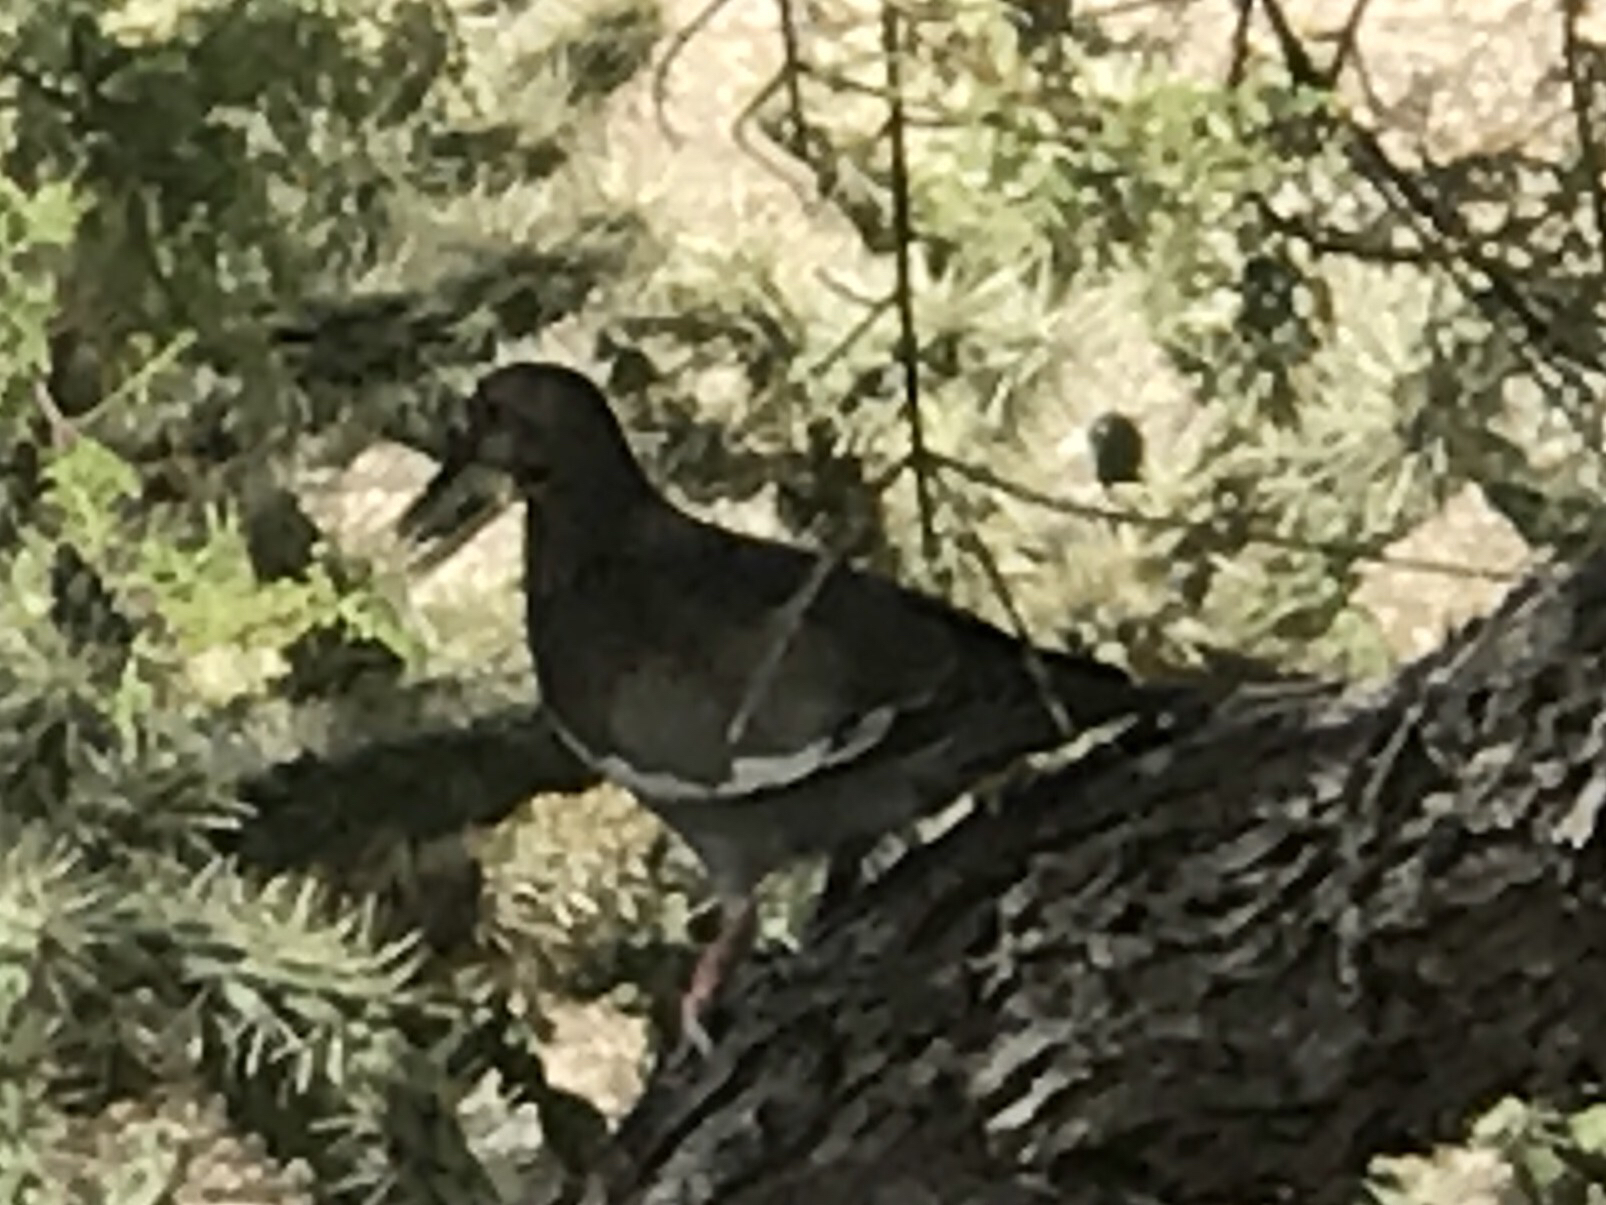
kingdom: Animalia
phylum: Chordata
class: Aves
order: Columbiformes
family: Columbidae
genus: Zenaida
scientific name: Zenaida asiatica
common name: White-winged dove
